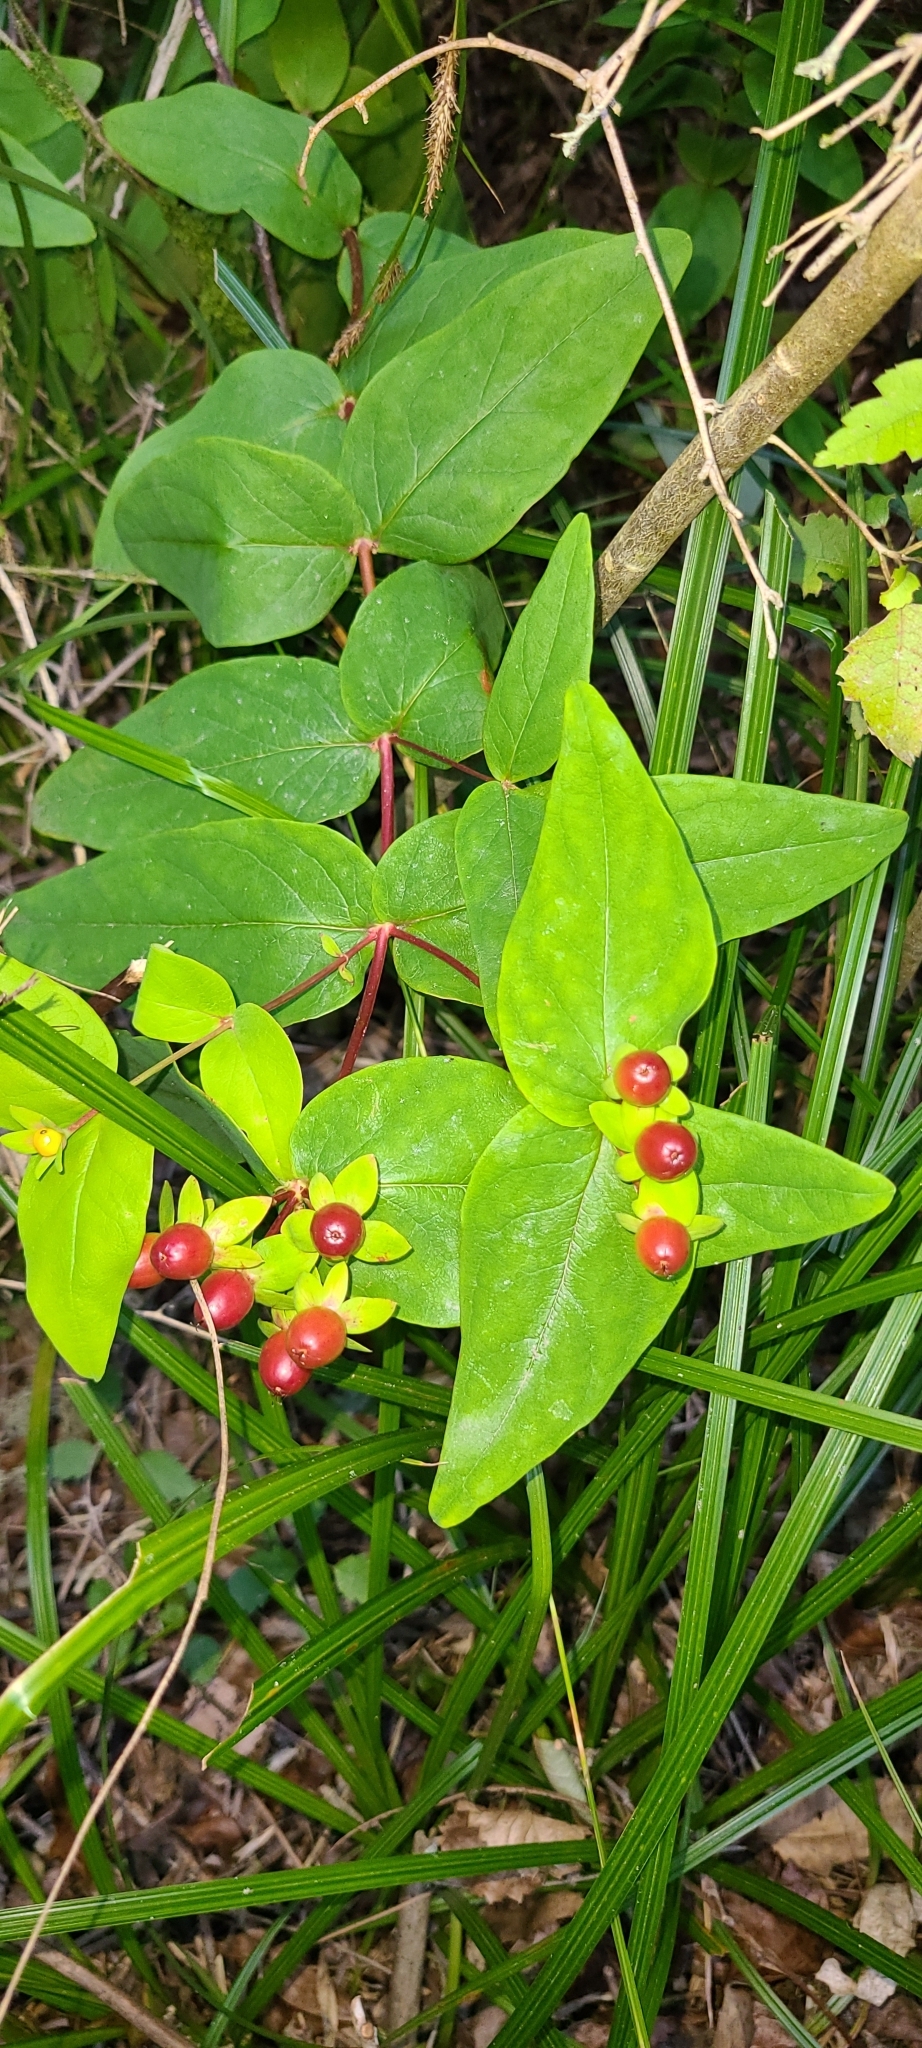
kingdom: Plantae
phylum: Tracheophyta
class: Magnoliopsida
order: Malpighiales
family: Hypericaceae
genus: Hypericum
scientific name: Hypericum androsaemum
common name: Sweet-amber
